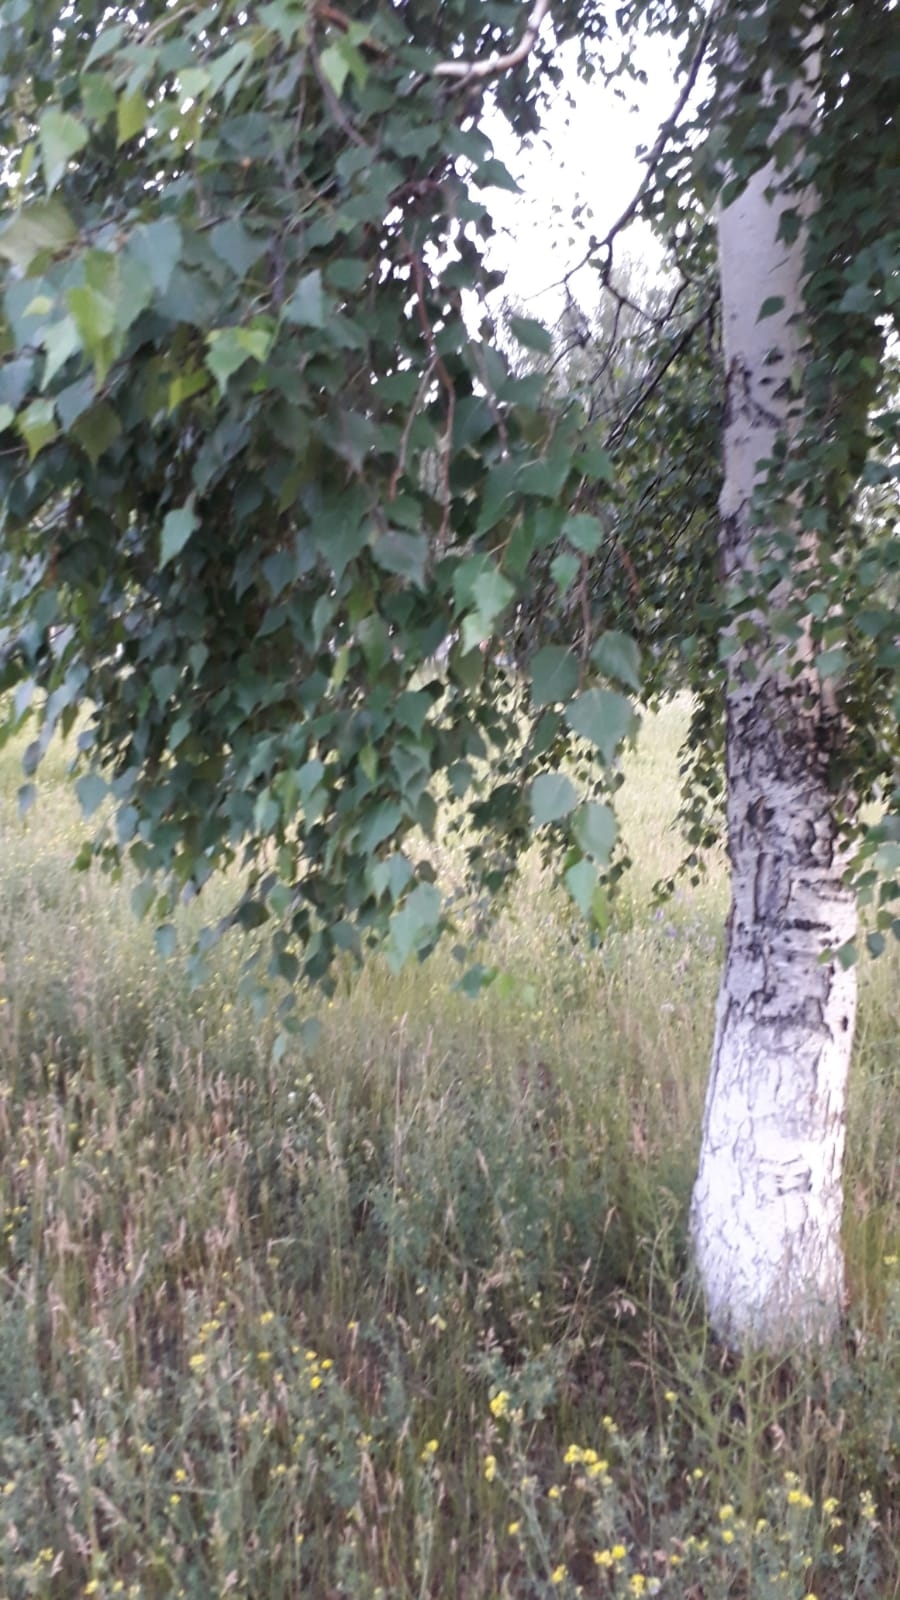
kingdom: Plantae
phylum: Tracheophyta
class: Magnoliopsida
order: Fagales
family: Betulaceae
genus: Betula
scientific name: Betula pendula
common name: Silver birch
